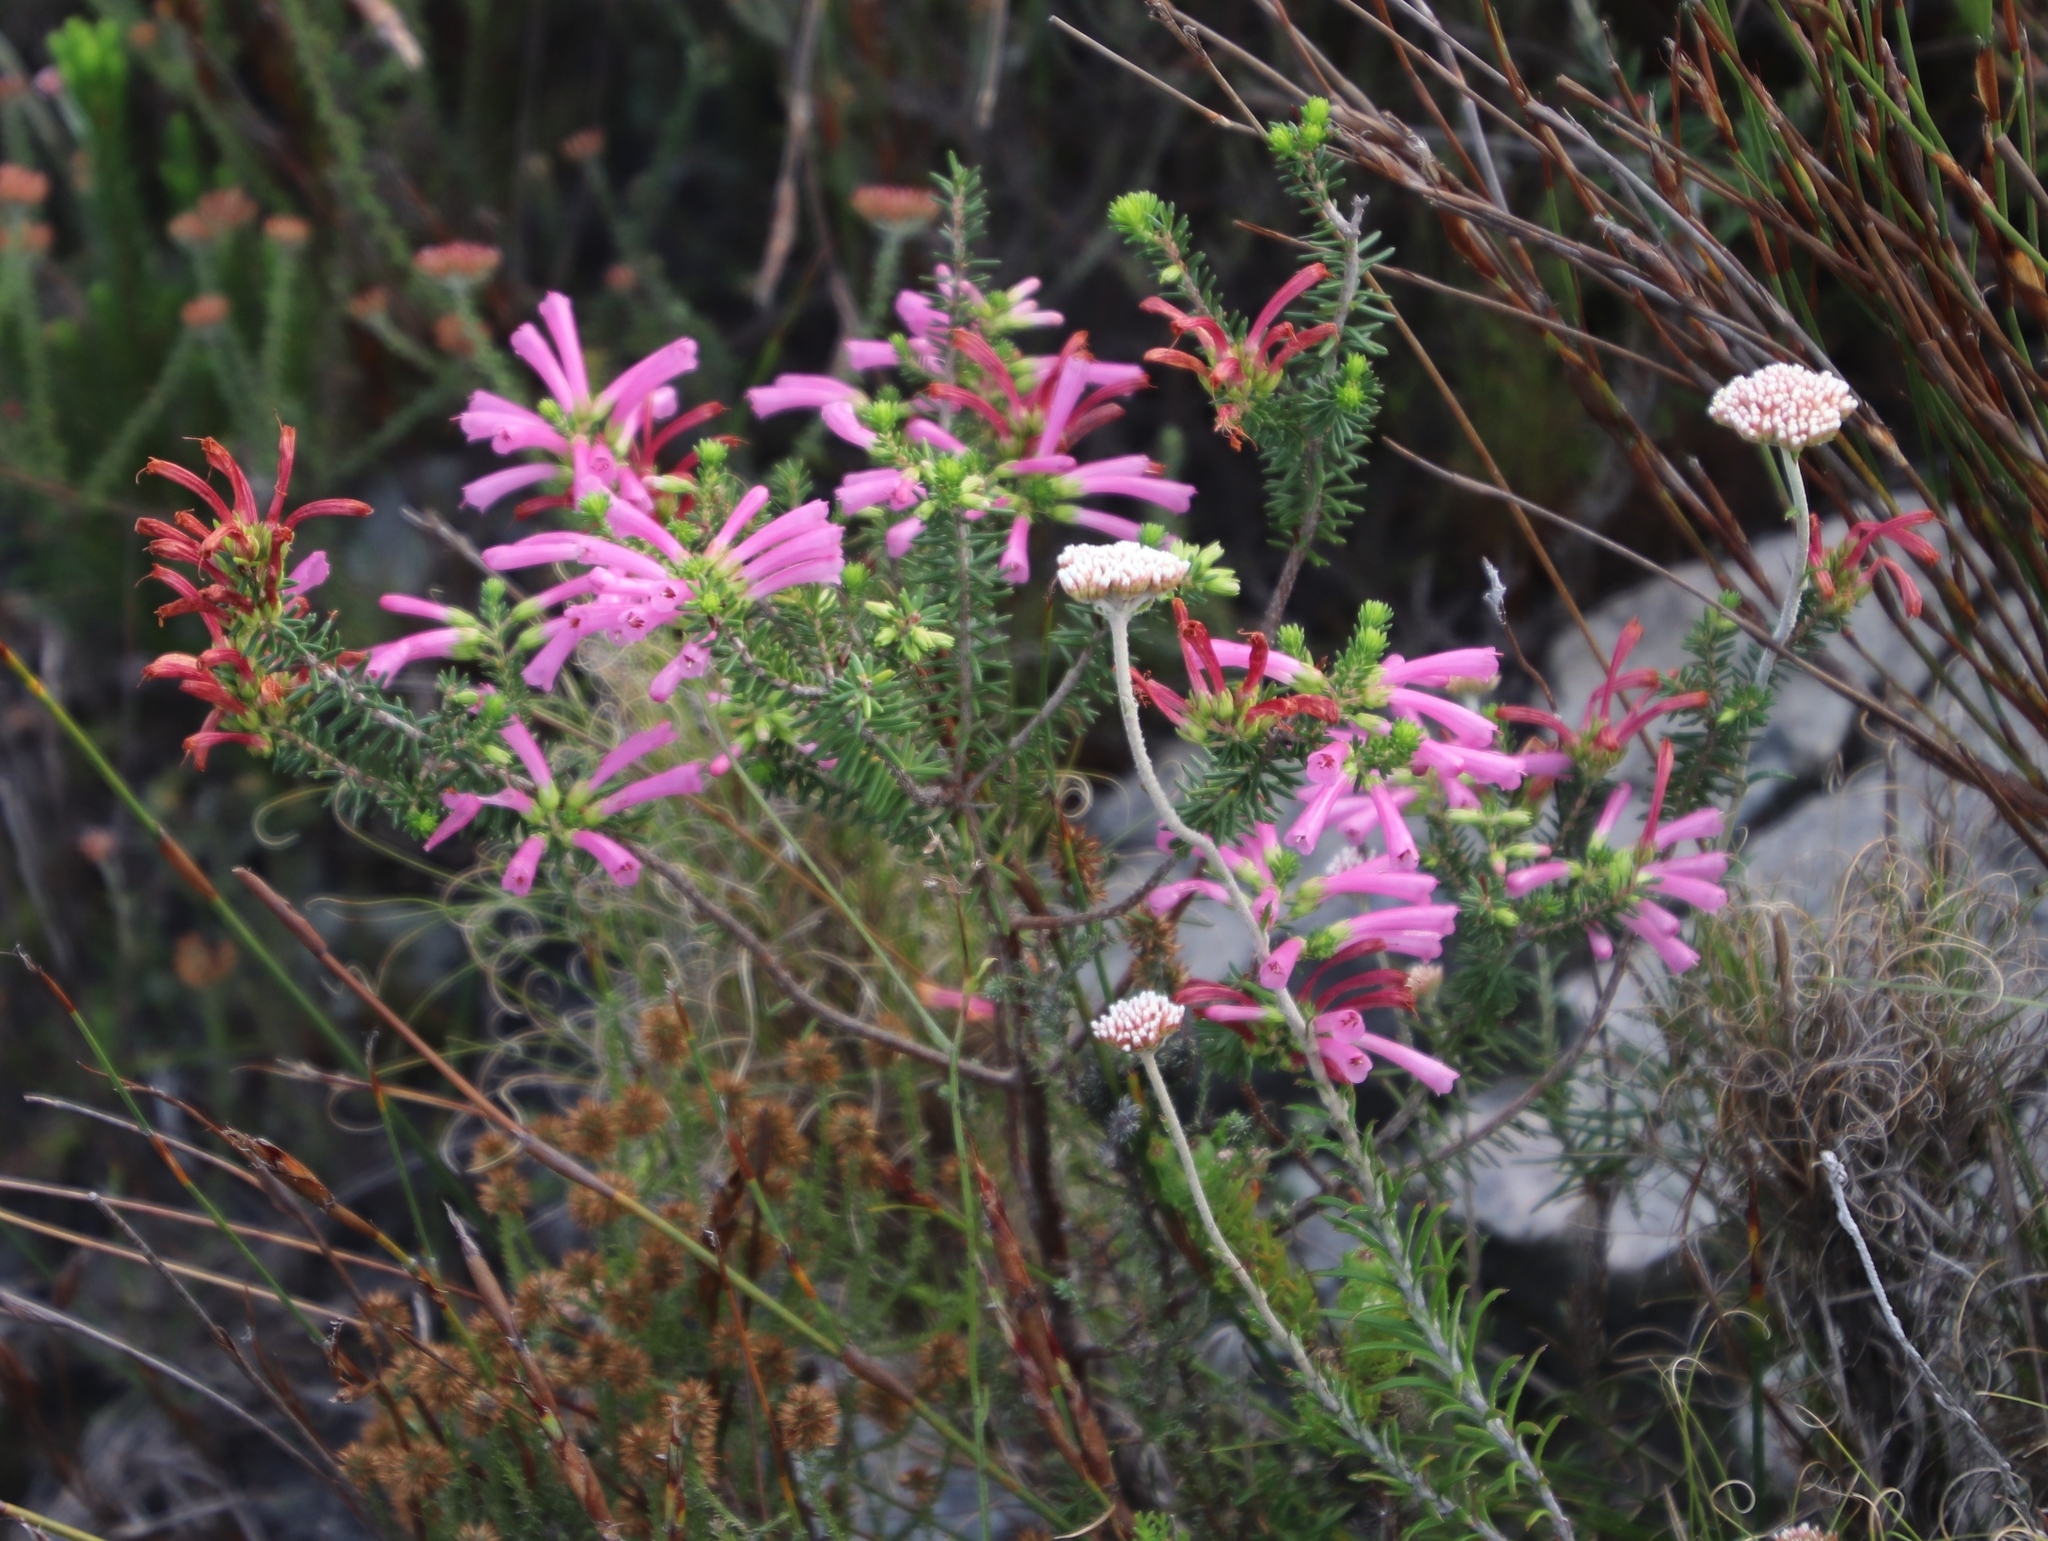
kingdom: Plantae
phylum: Tracheophyta
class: Magnoliopsida
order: Ericales
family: Ericaceae
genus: Erica
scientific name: Erica abietina
